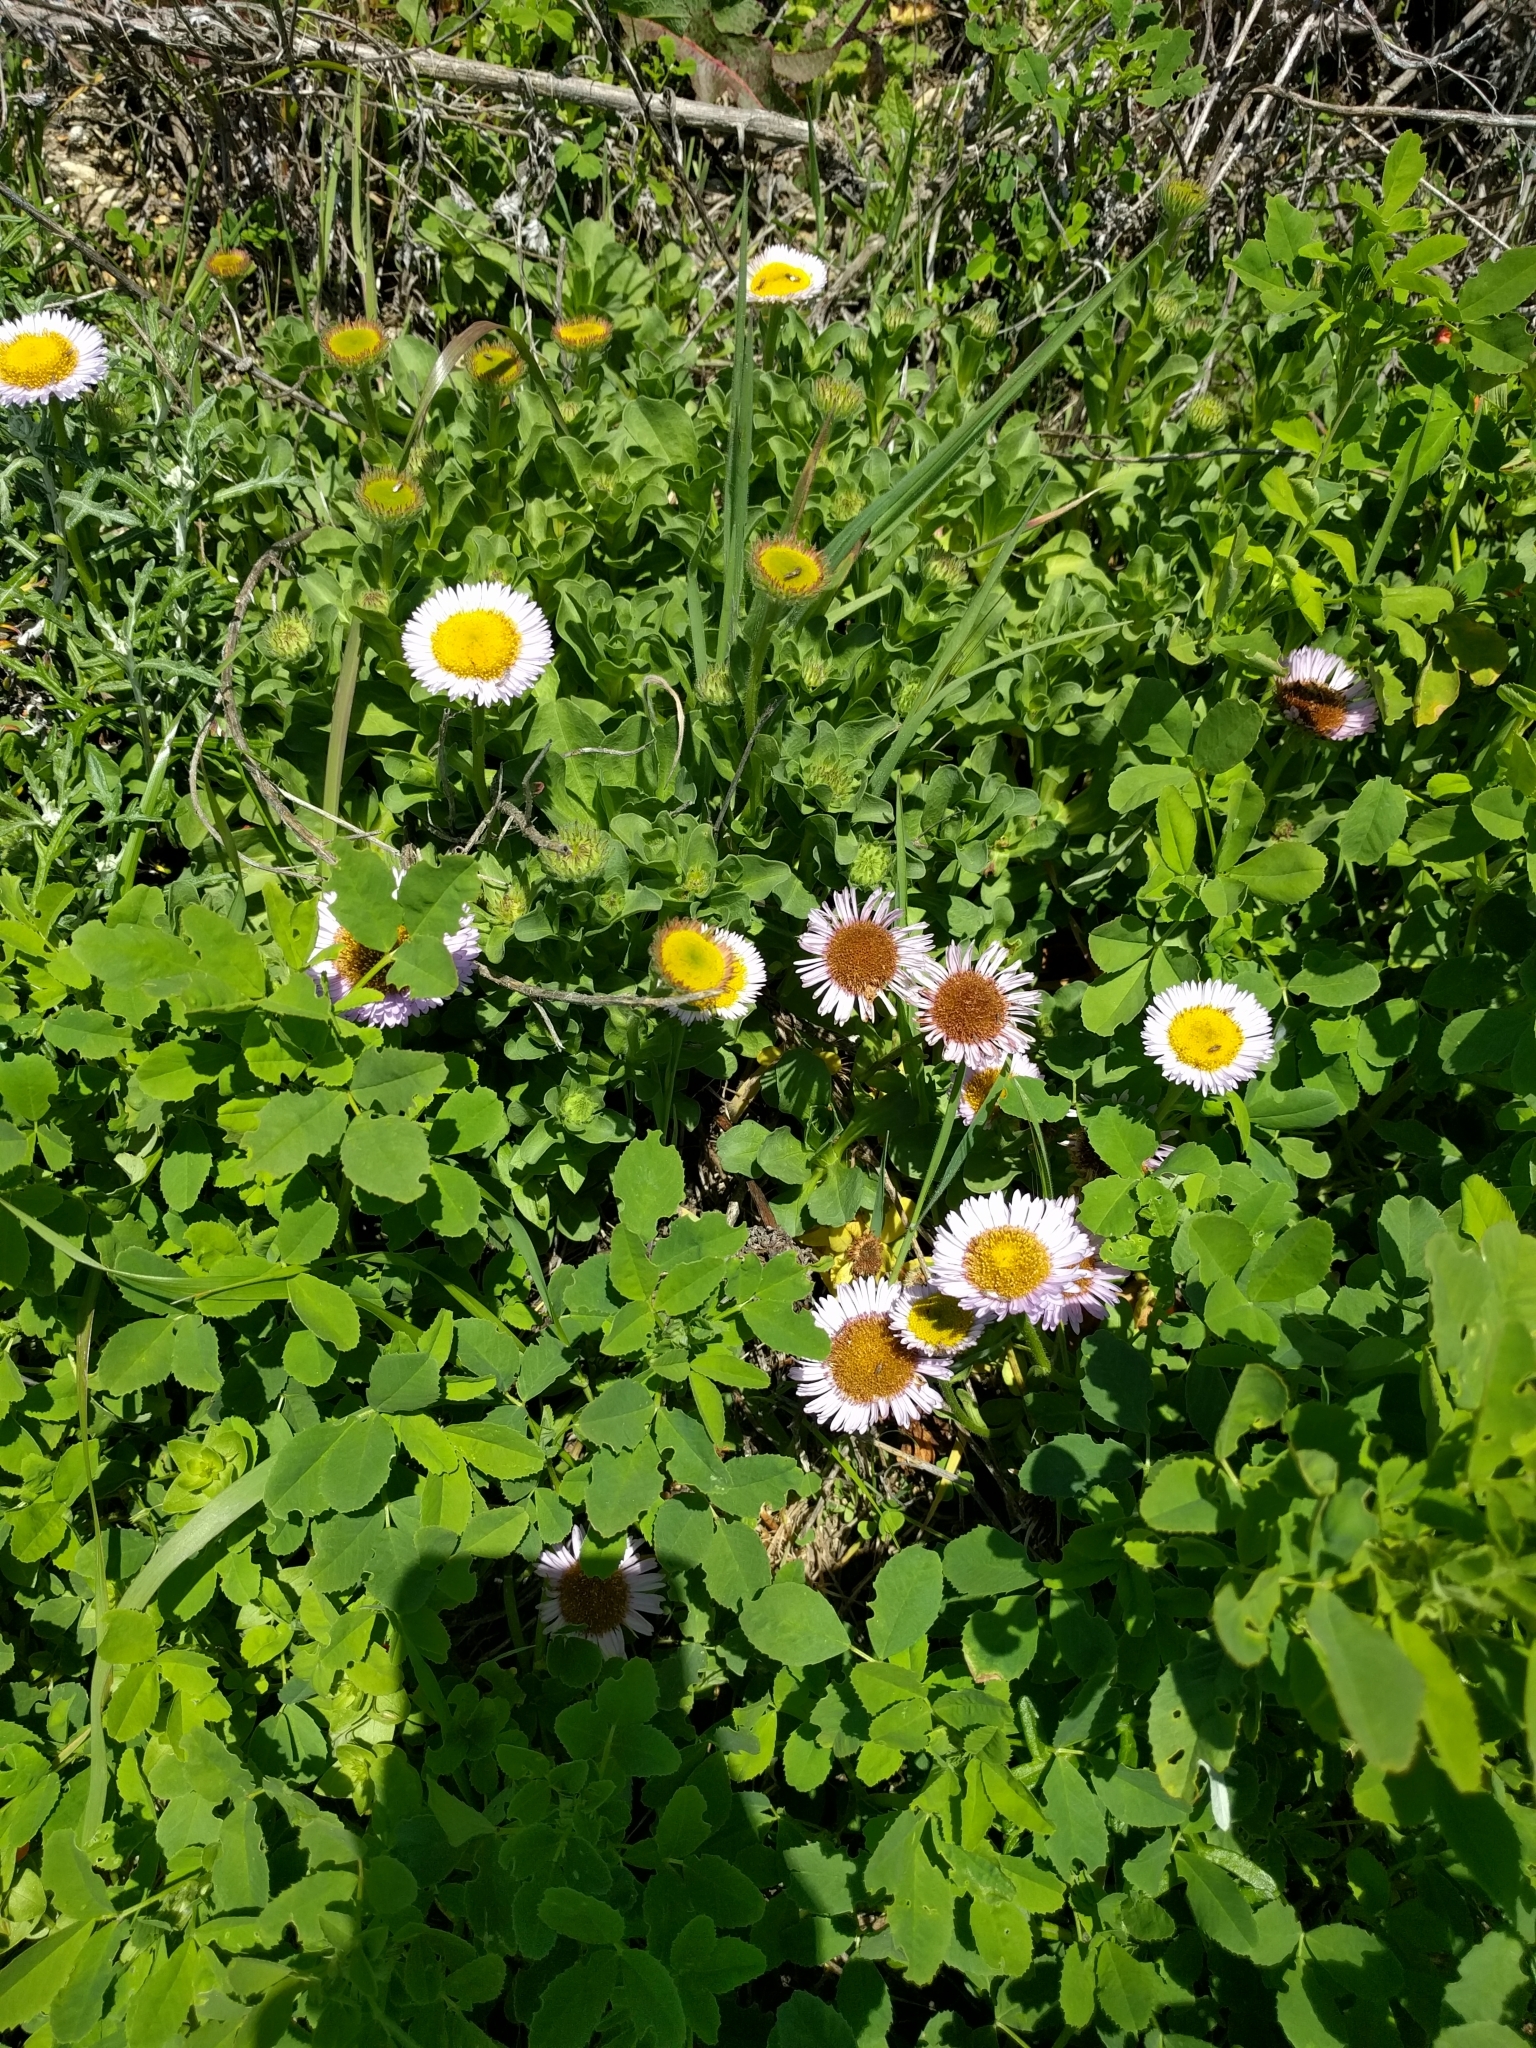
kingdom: Plantae
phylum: Tracheophyta
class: Magnoliopsida
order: Asterales
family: Asteraceae
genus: Erigeron
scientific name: Erigeron glaucus
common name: Seaside daisy
